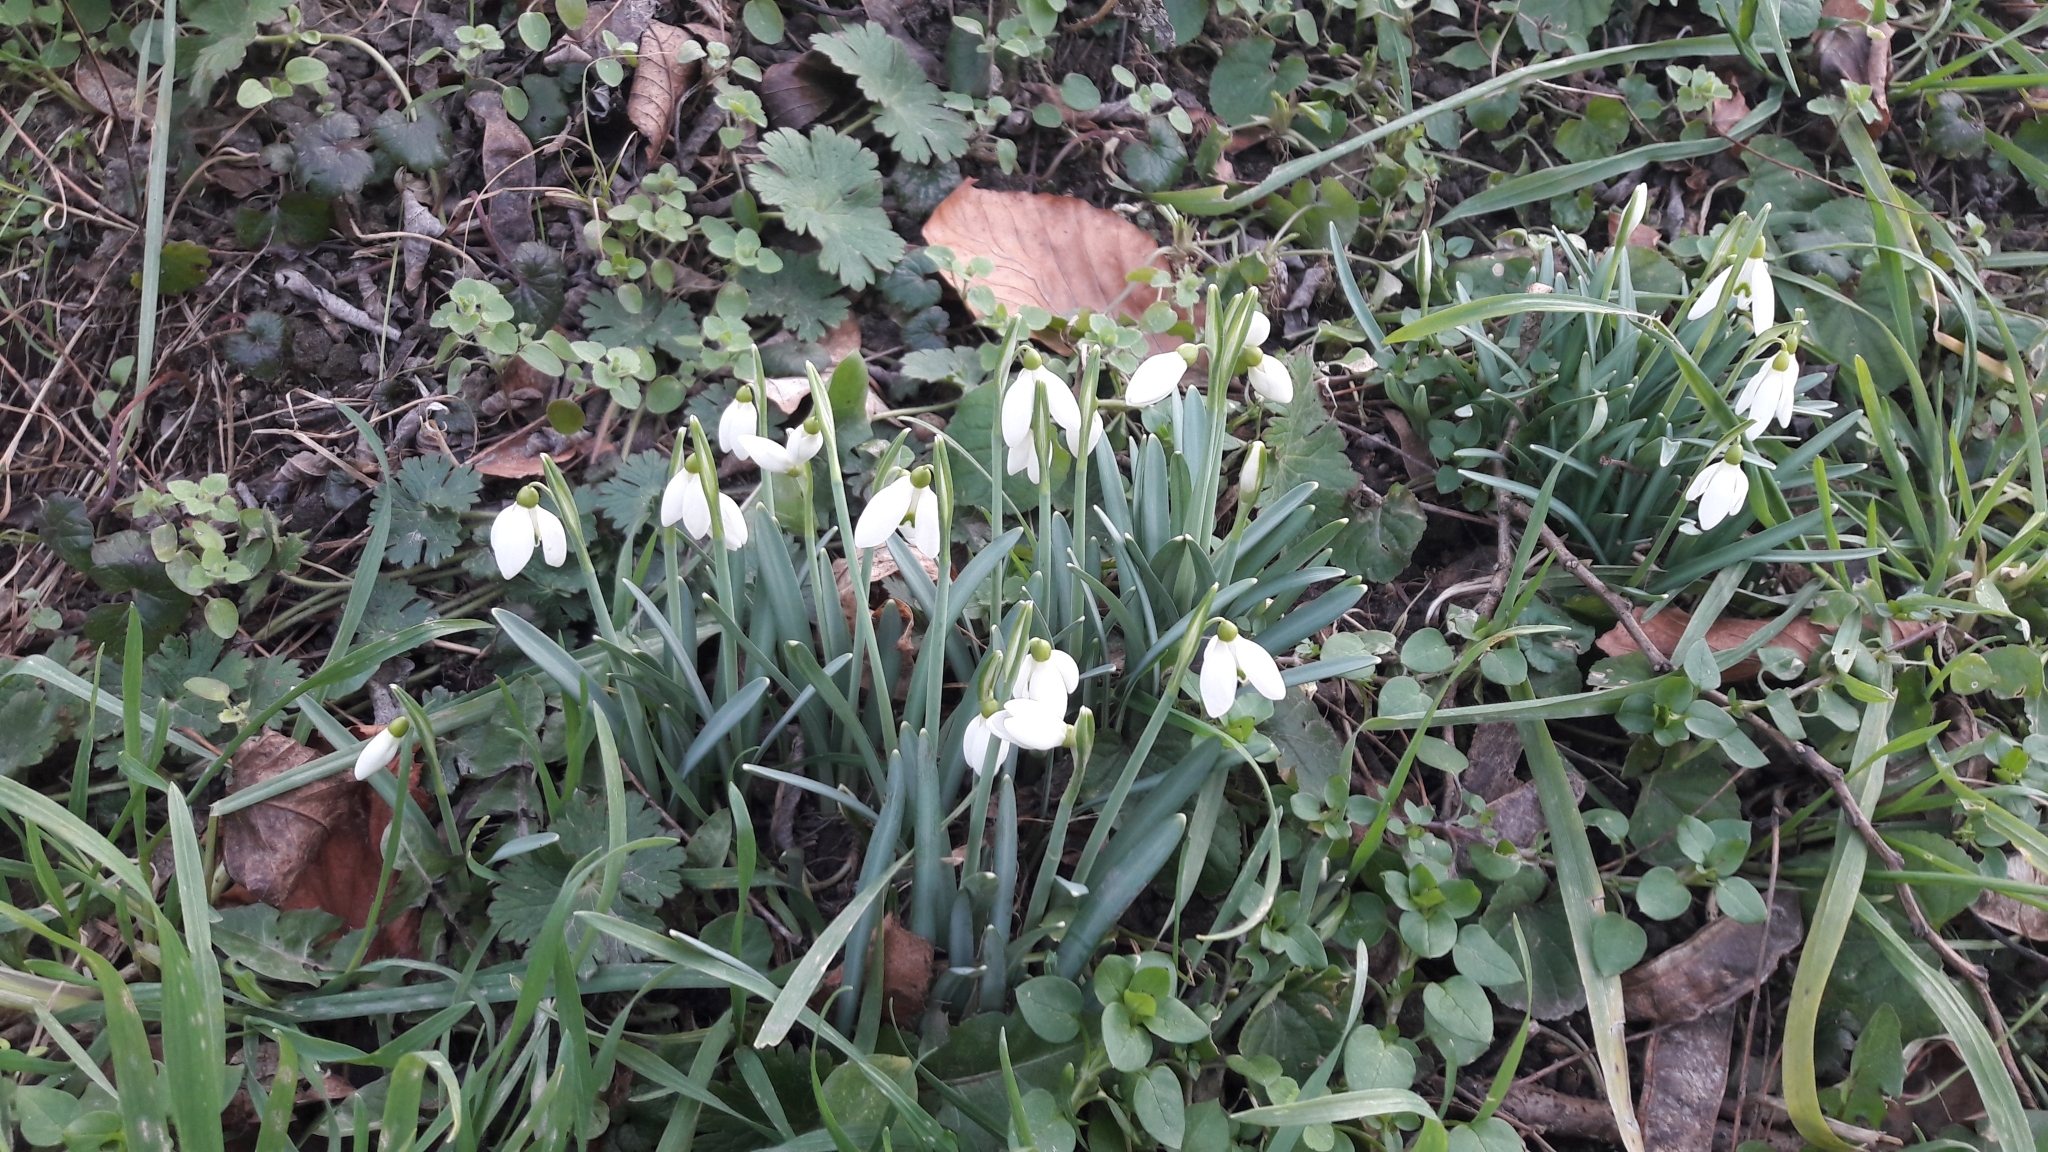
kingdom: Plantae
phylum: Tracheophyta
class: Liliopsida
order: Asparagales
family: Amaryllidaceae
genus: Galanthus
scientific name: Galanthus nivalis
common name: Snowdrop
